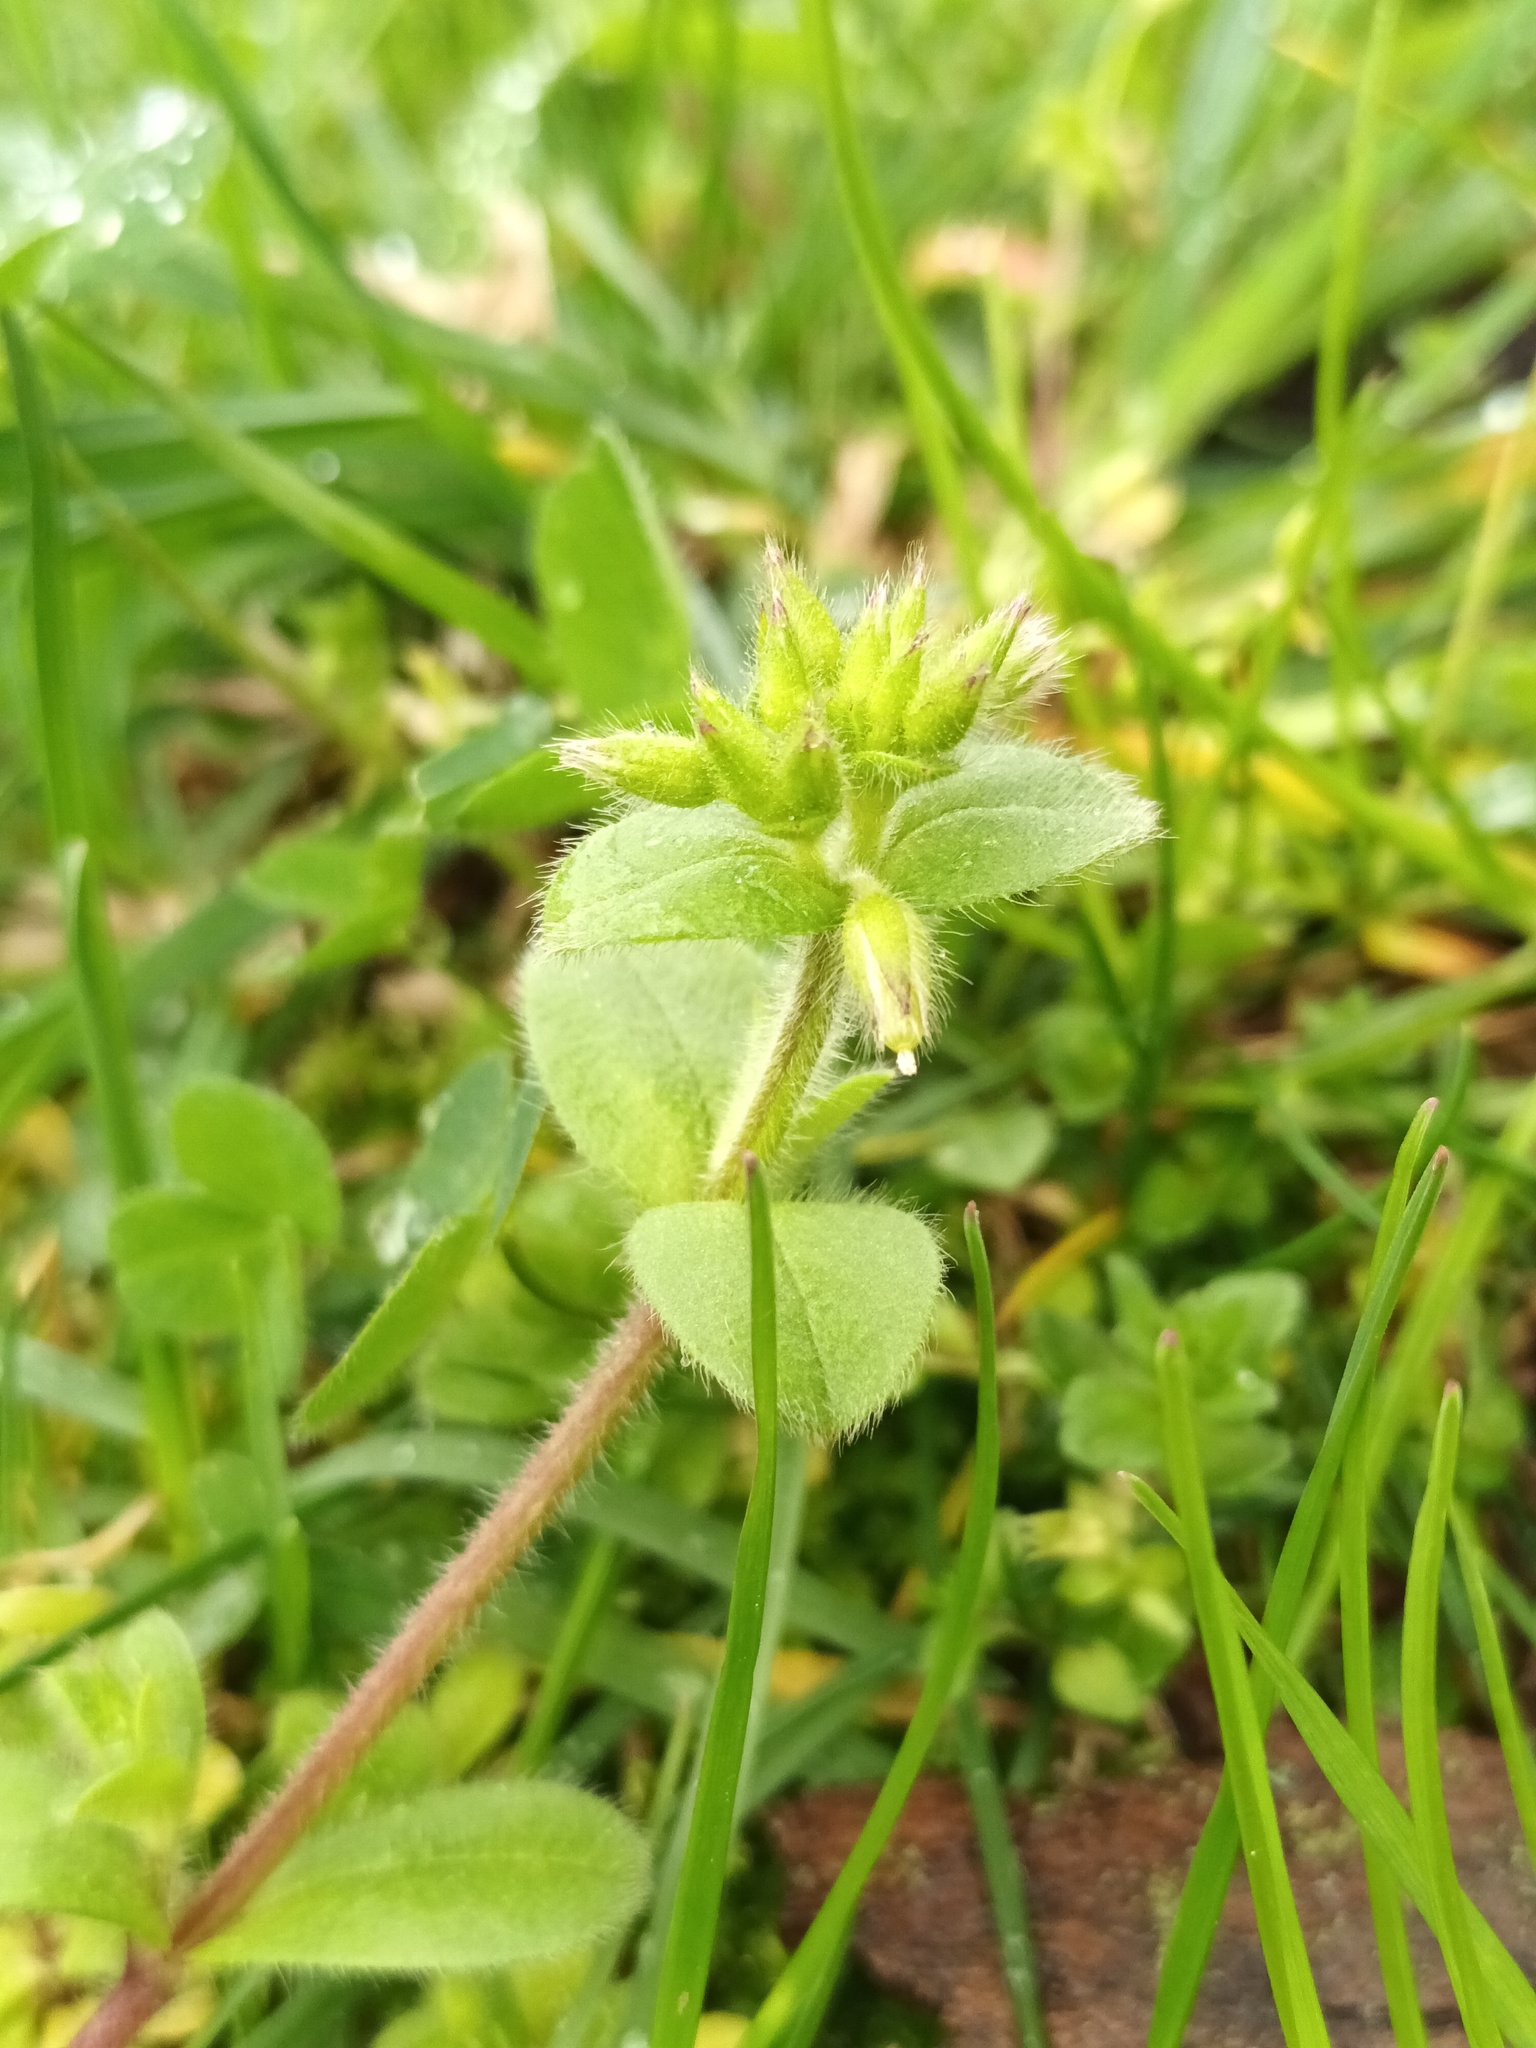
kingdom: Plantae
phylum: Tracheophyta
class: Magnoliopsida
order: Caryophyllales
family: Caryophyllaceae
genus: Cerastium
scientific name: Cerastium glomeratum
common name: Sticky chickweed
